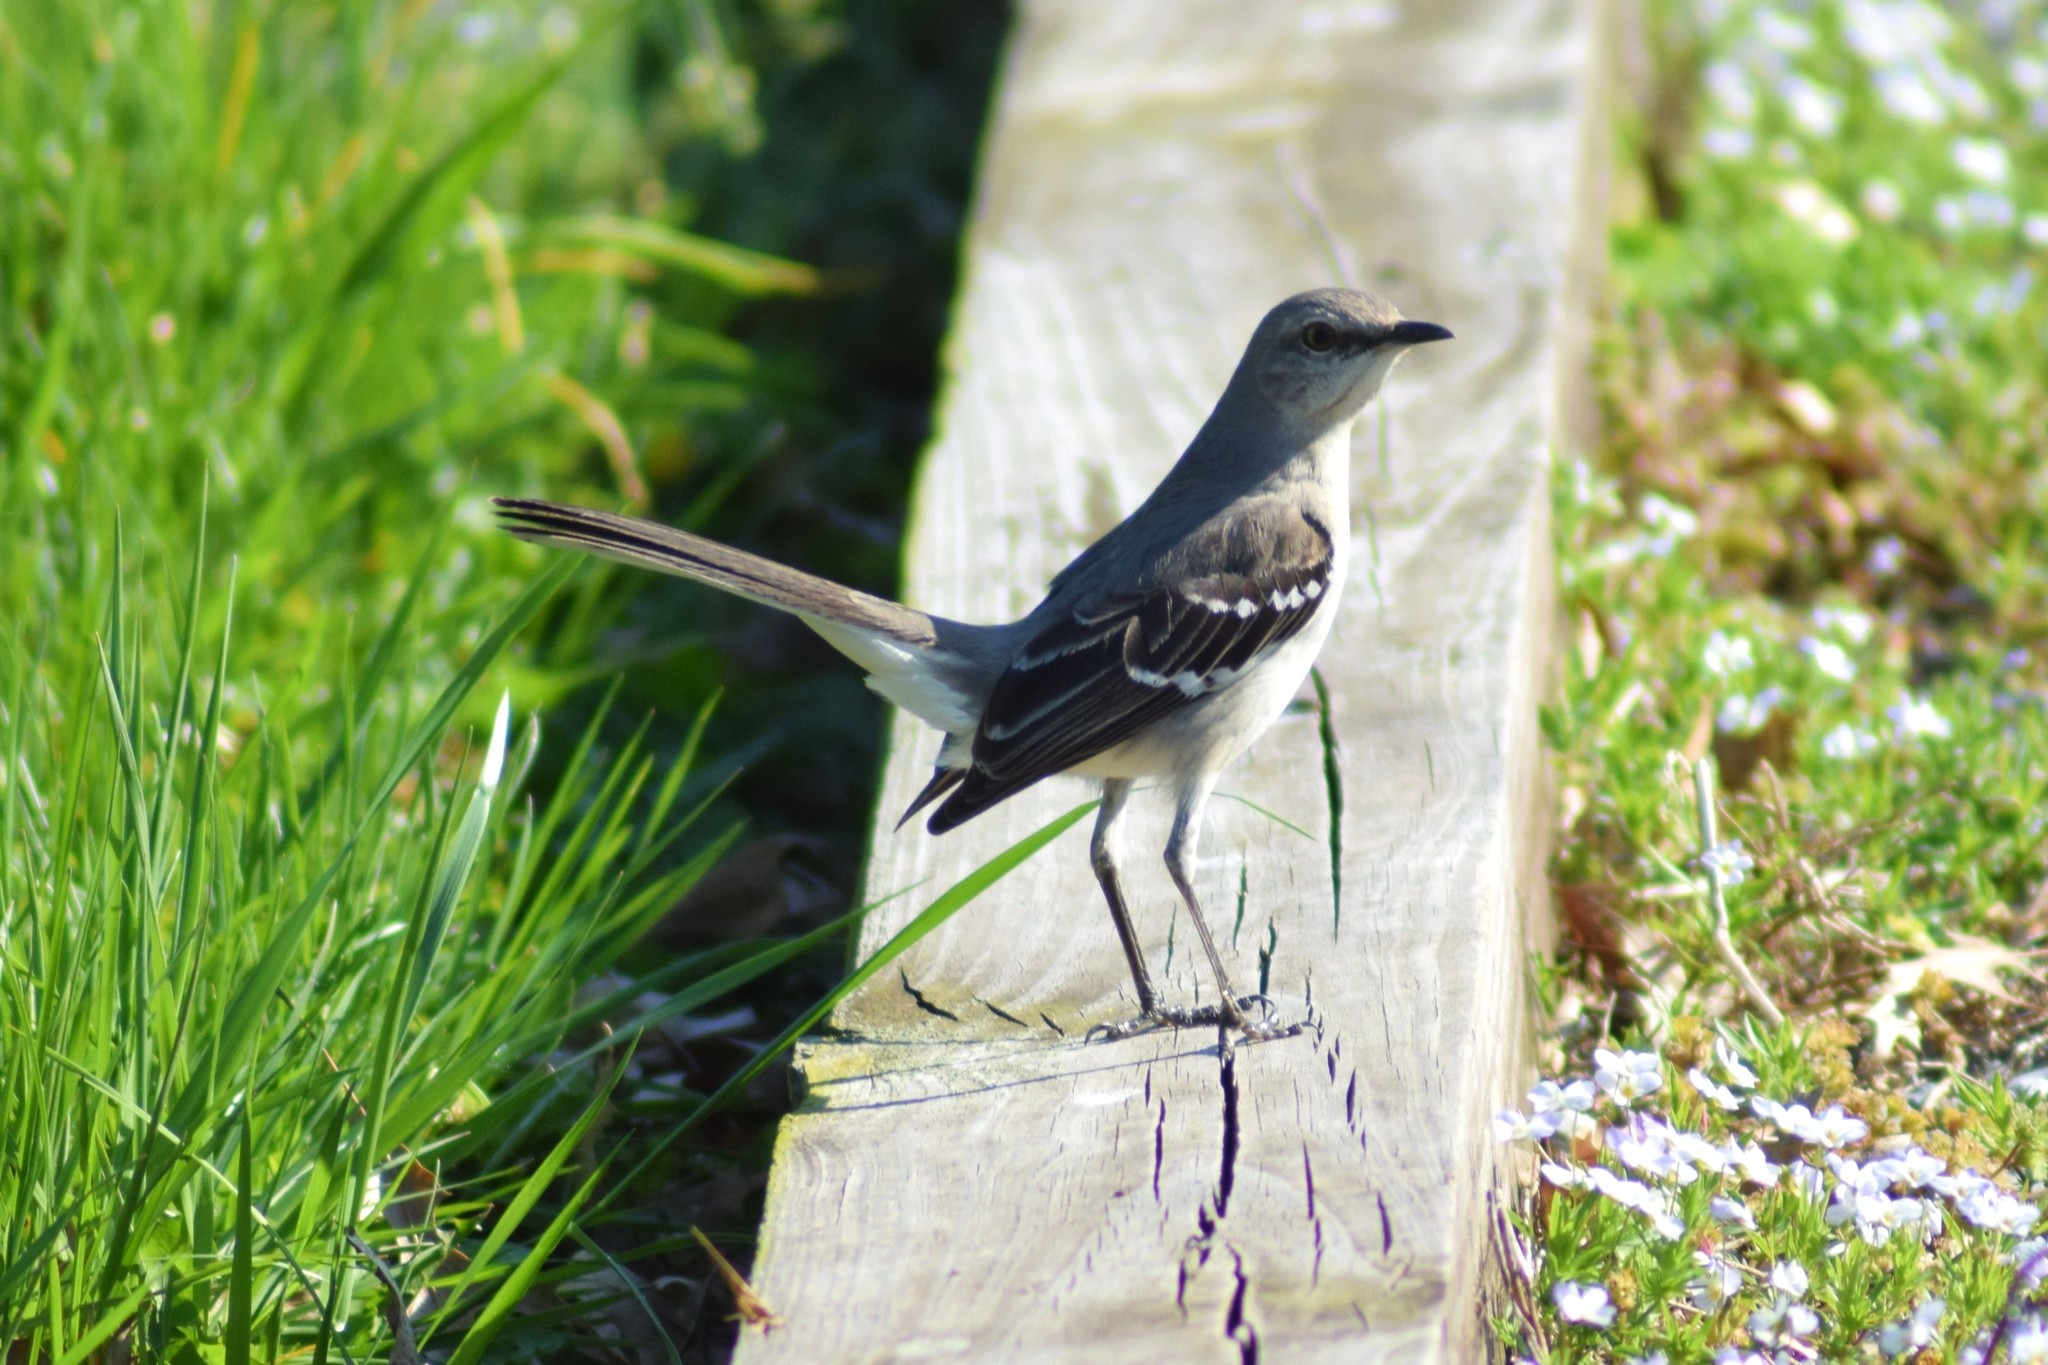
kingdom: Animalia
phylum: Chordata
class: Aves
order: Passeriformes
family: Mimidae
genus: Mimus
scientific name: Mimus polyglottos
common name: Northern mockingbird
